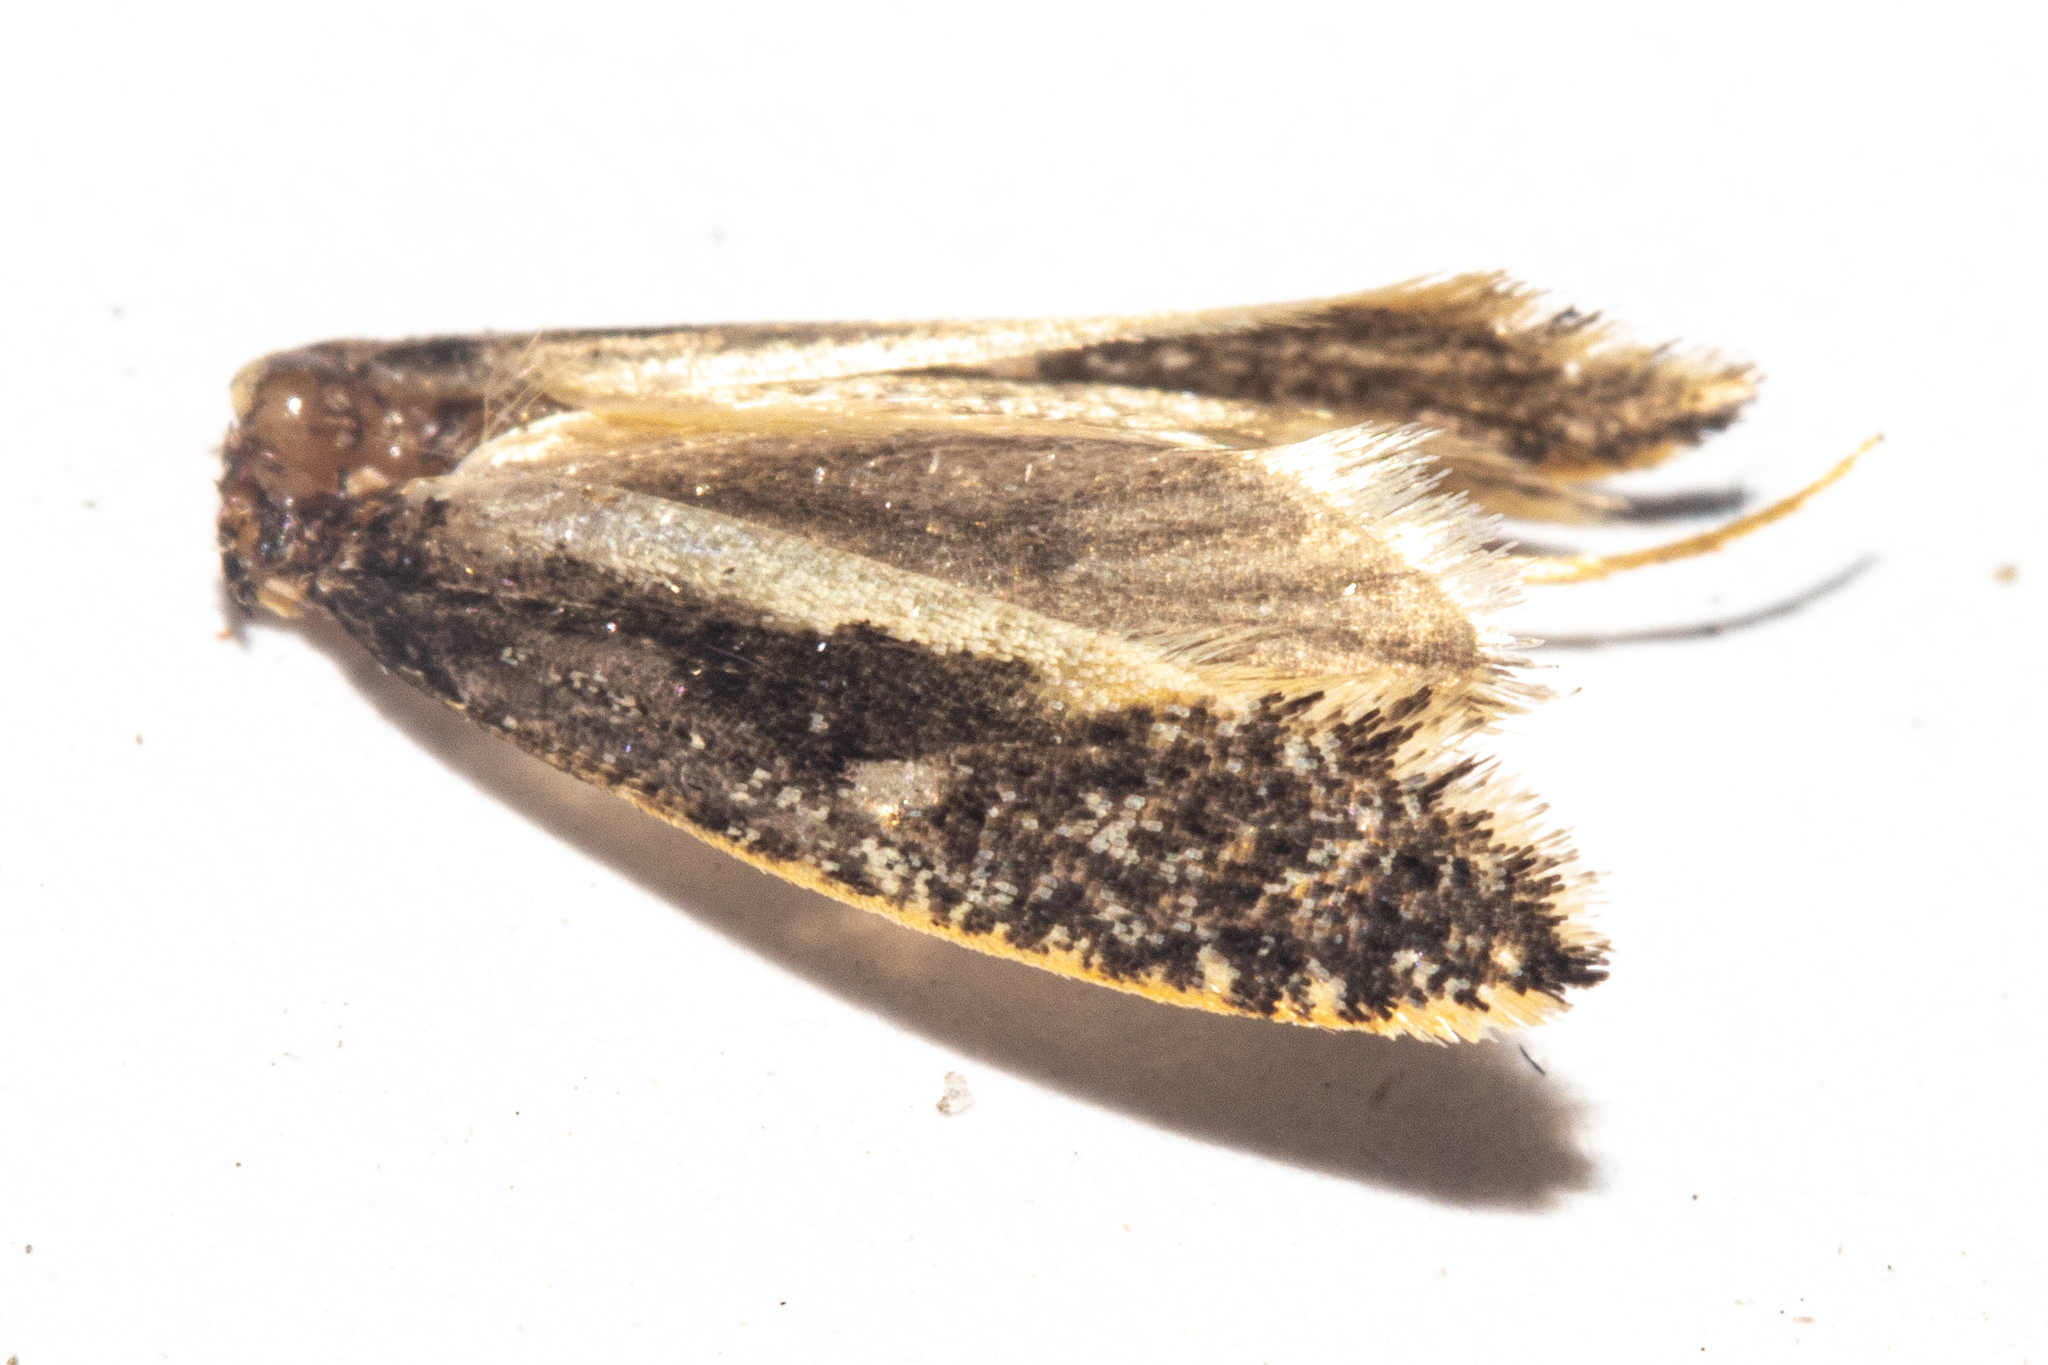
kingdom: Animalia
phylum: Arthropoda
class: Insecta
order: Lepidoptera
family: Tineidae
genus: Monopis
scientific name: Monopis ethelella
